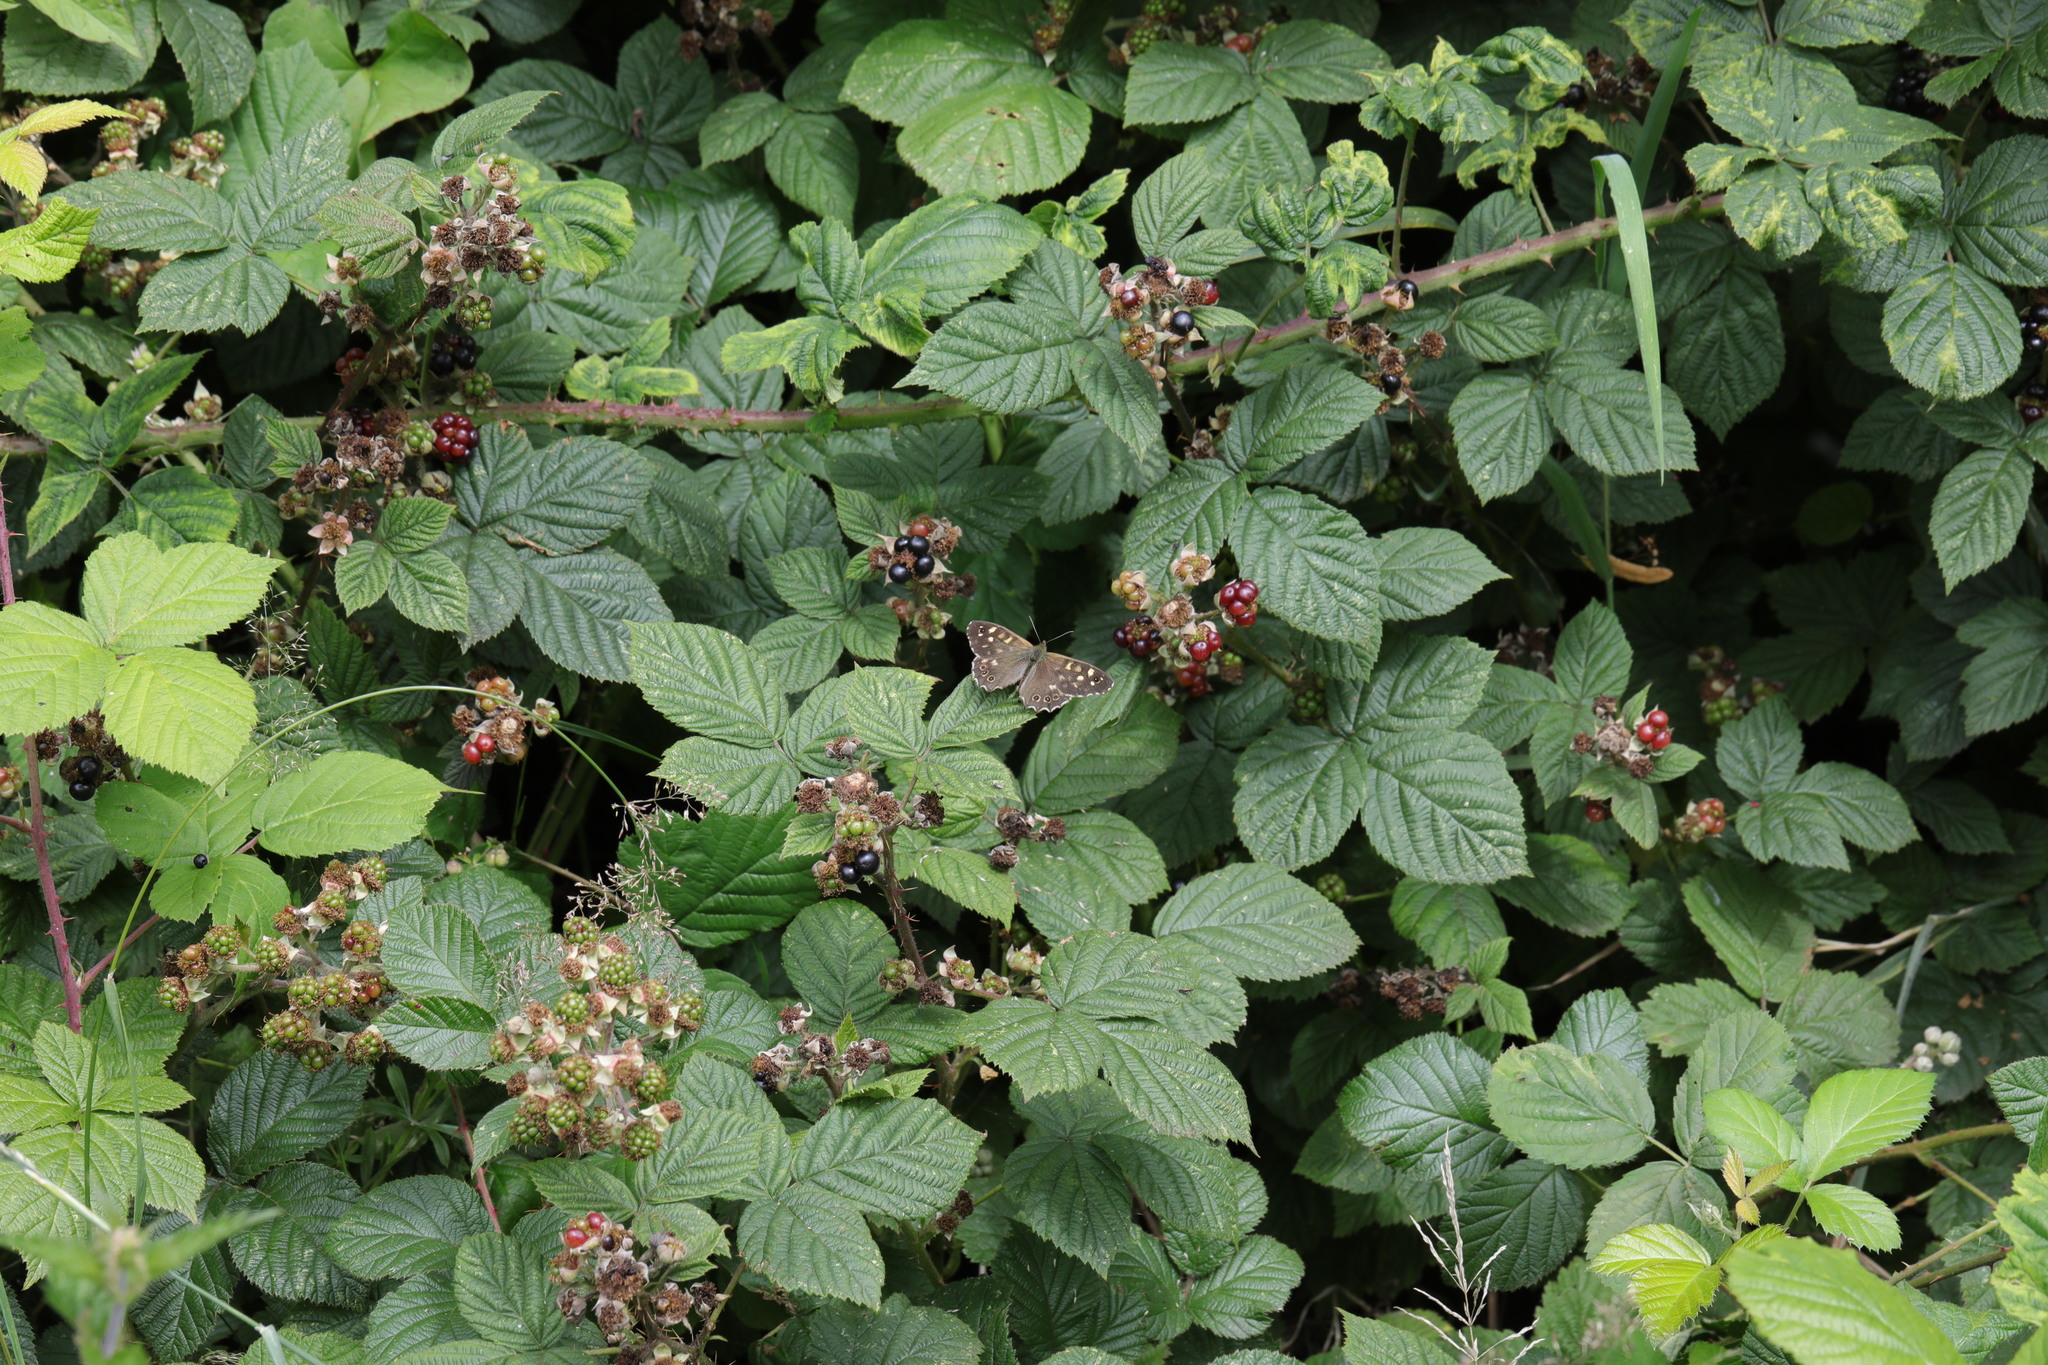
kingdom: Animalia
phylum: Arthropoda
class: Insecta
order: Lepidoptera
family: Nymphalidae
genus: Pararge
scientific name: Pararge aegeria
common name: Speckled wood
